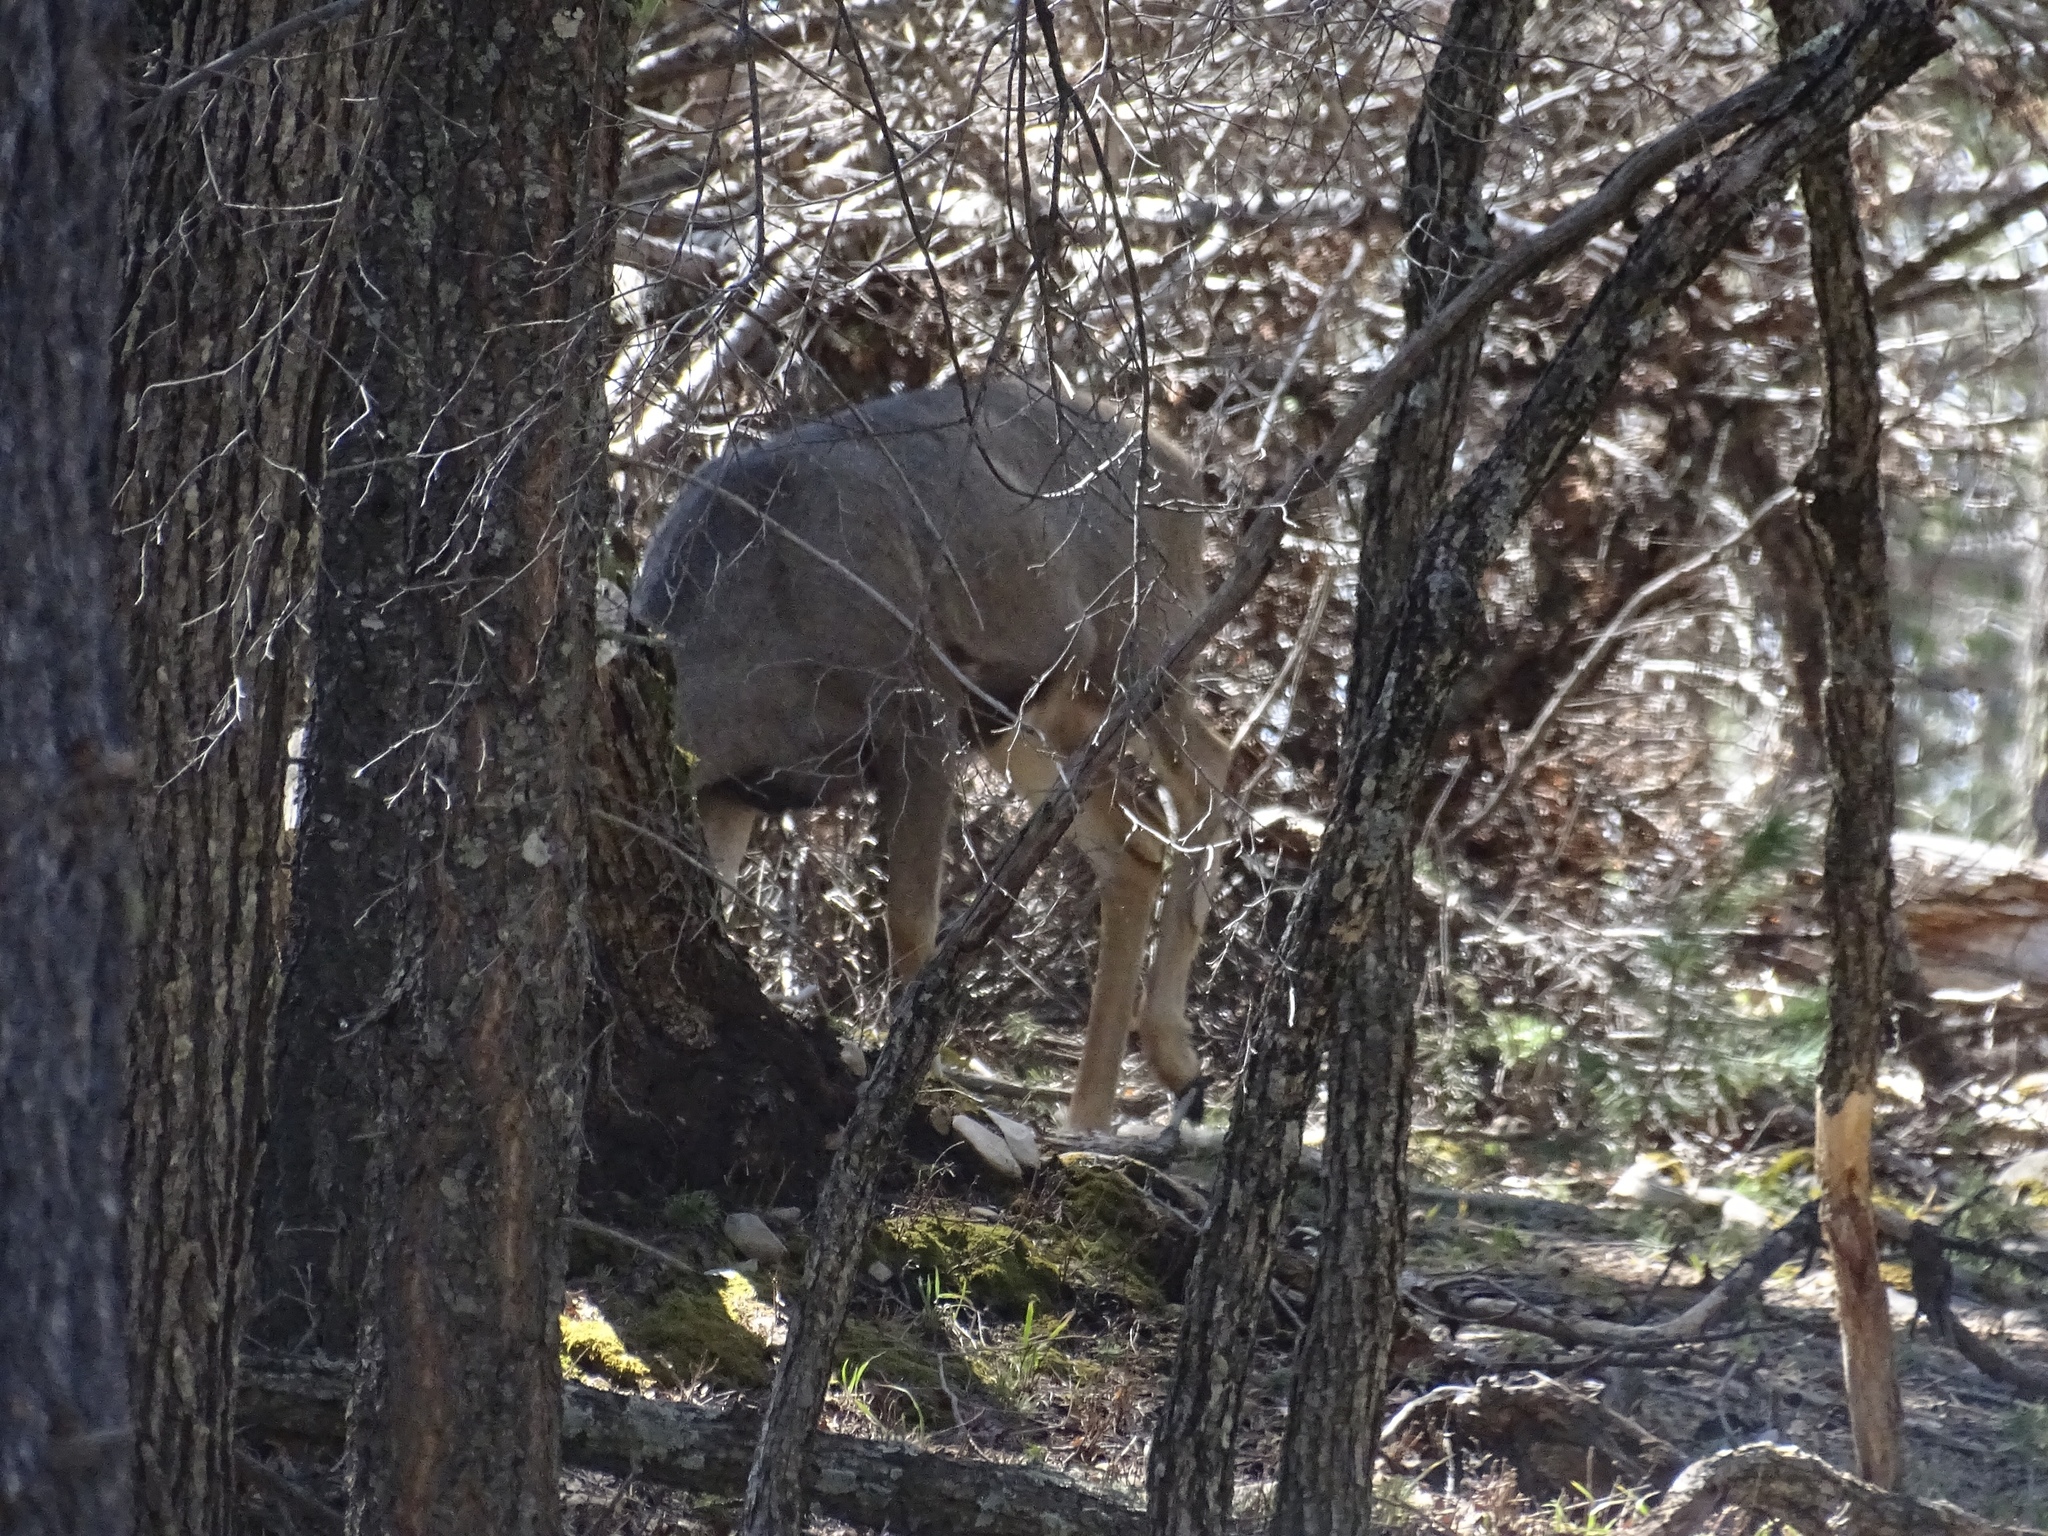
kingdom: Animalia
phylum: Chordata
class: Mammalia
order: Artiodactyla
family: Cervidae
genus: Odocoileus
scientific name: Odocoileus hemionus
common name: Mule deer
